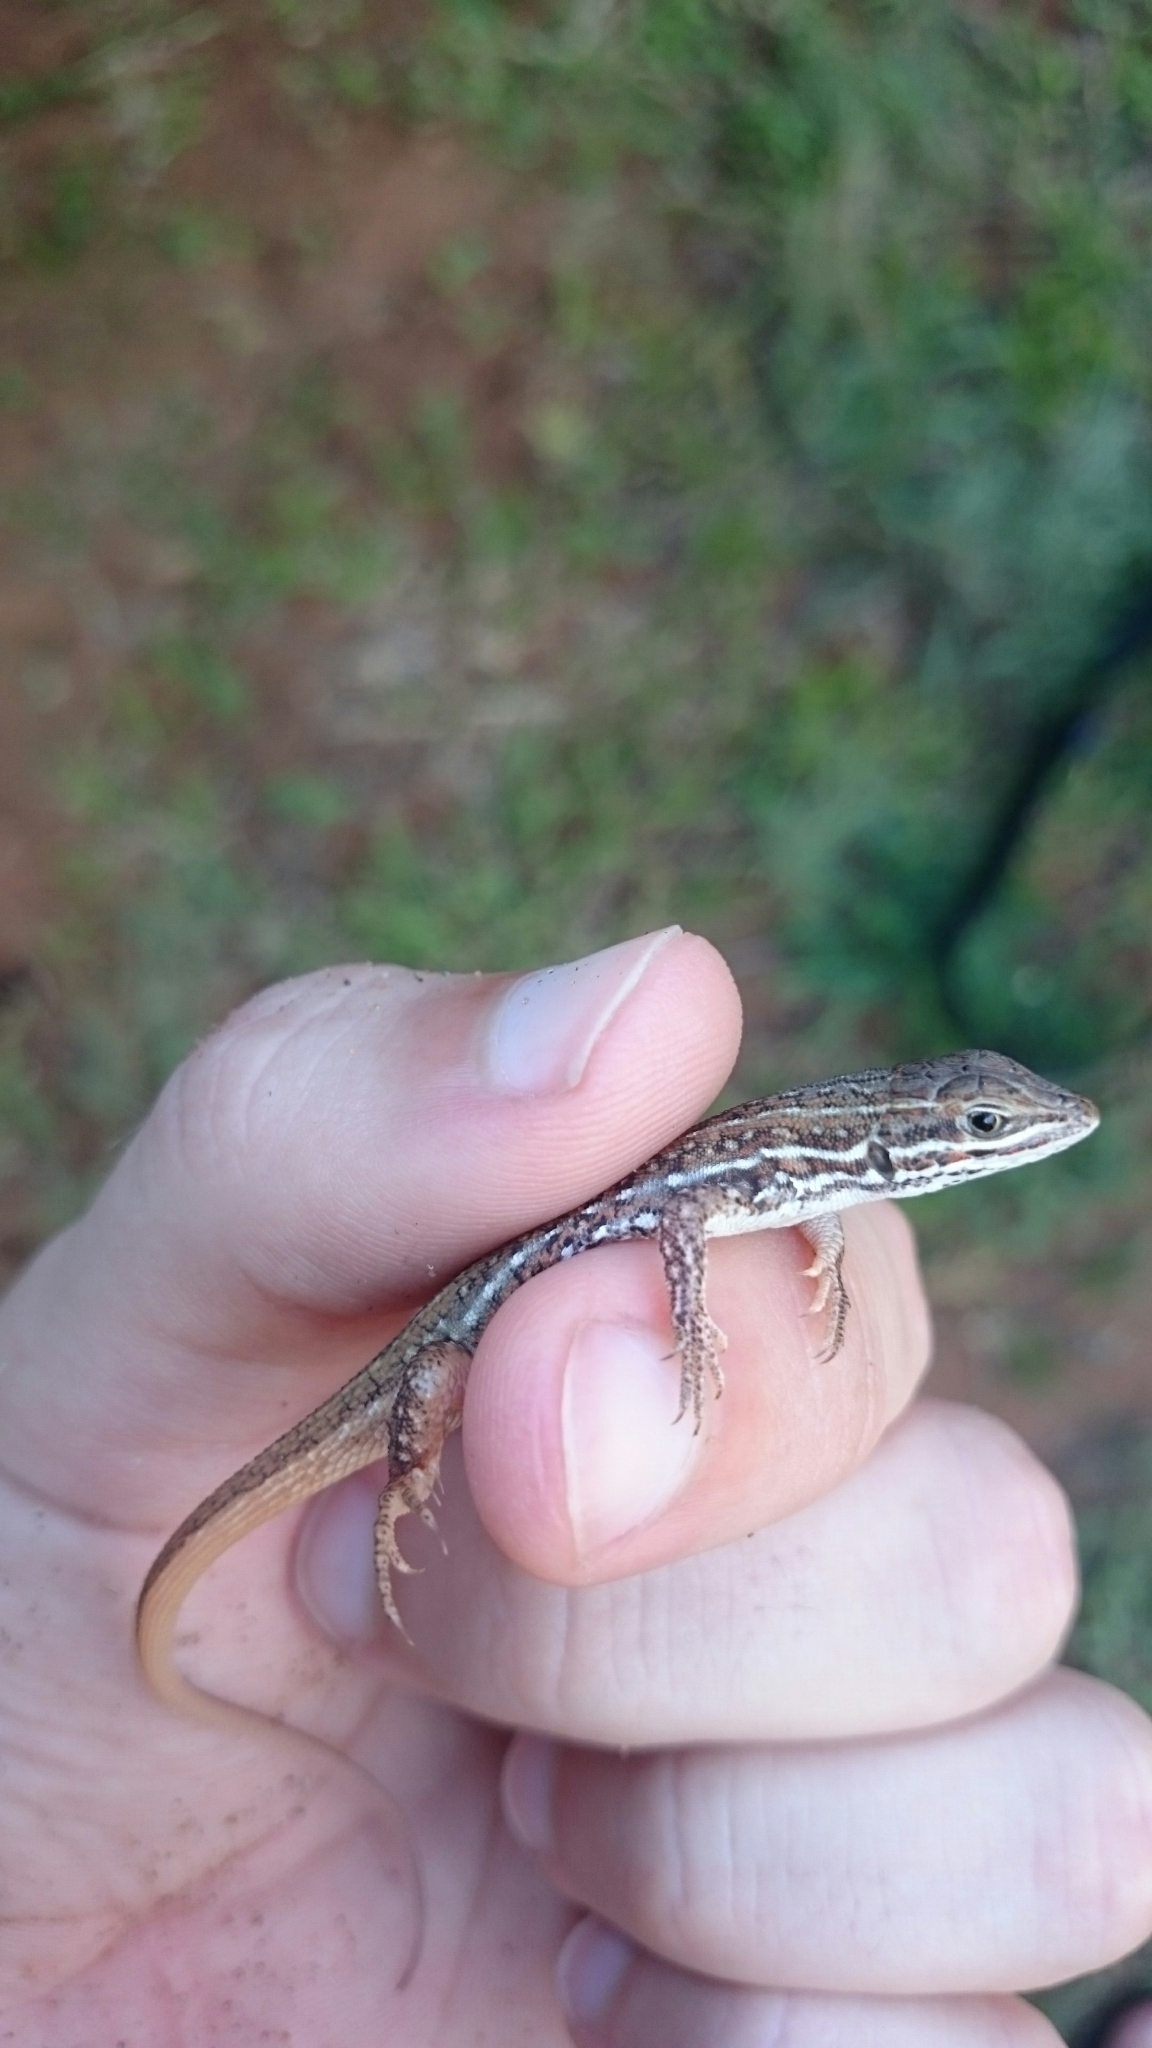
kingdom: Animalia
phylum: Chordata
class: Squamata
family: Lacertidae
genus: Meroles
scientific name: Meroles squamulosus
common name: Common desert lizard
